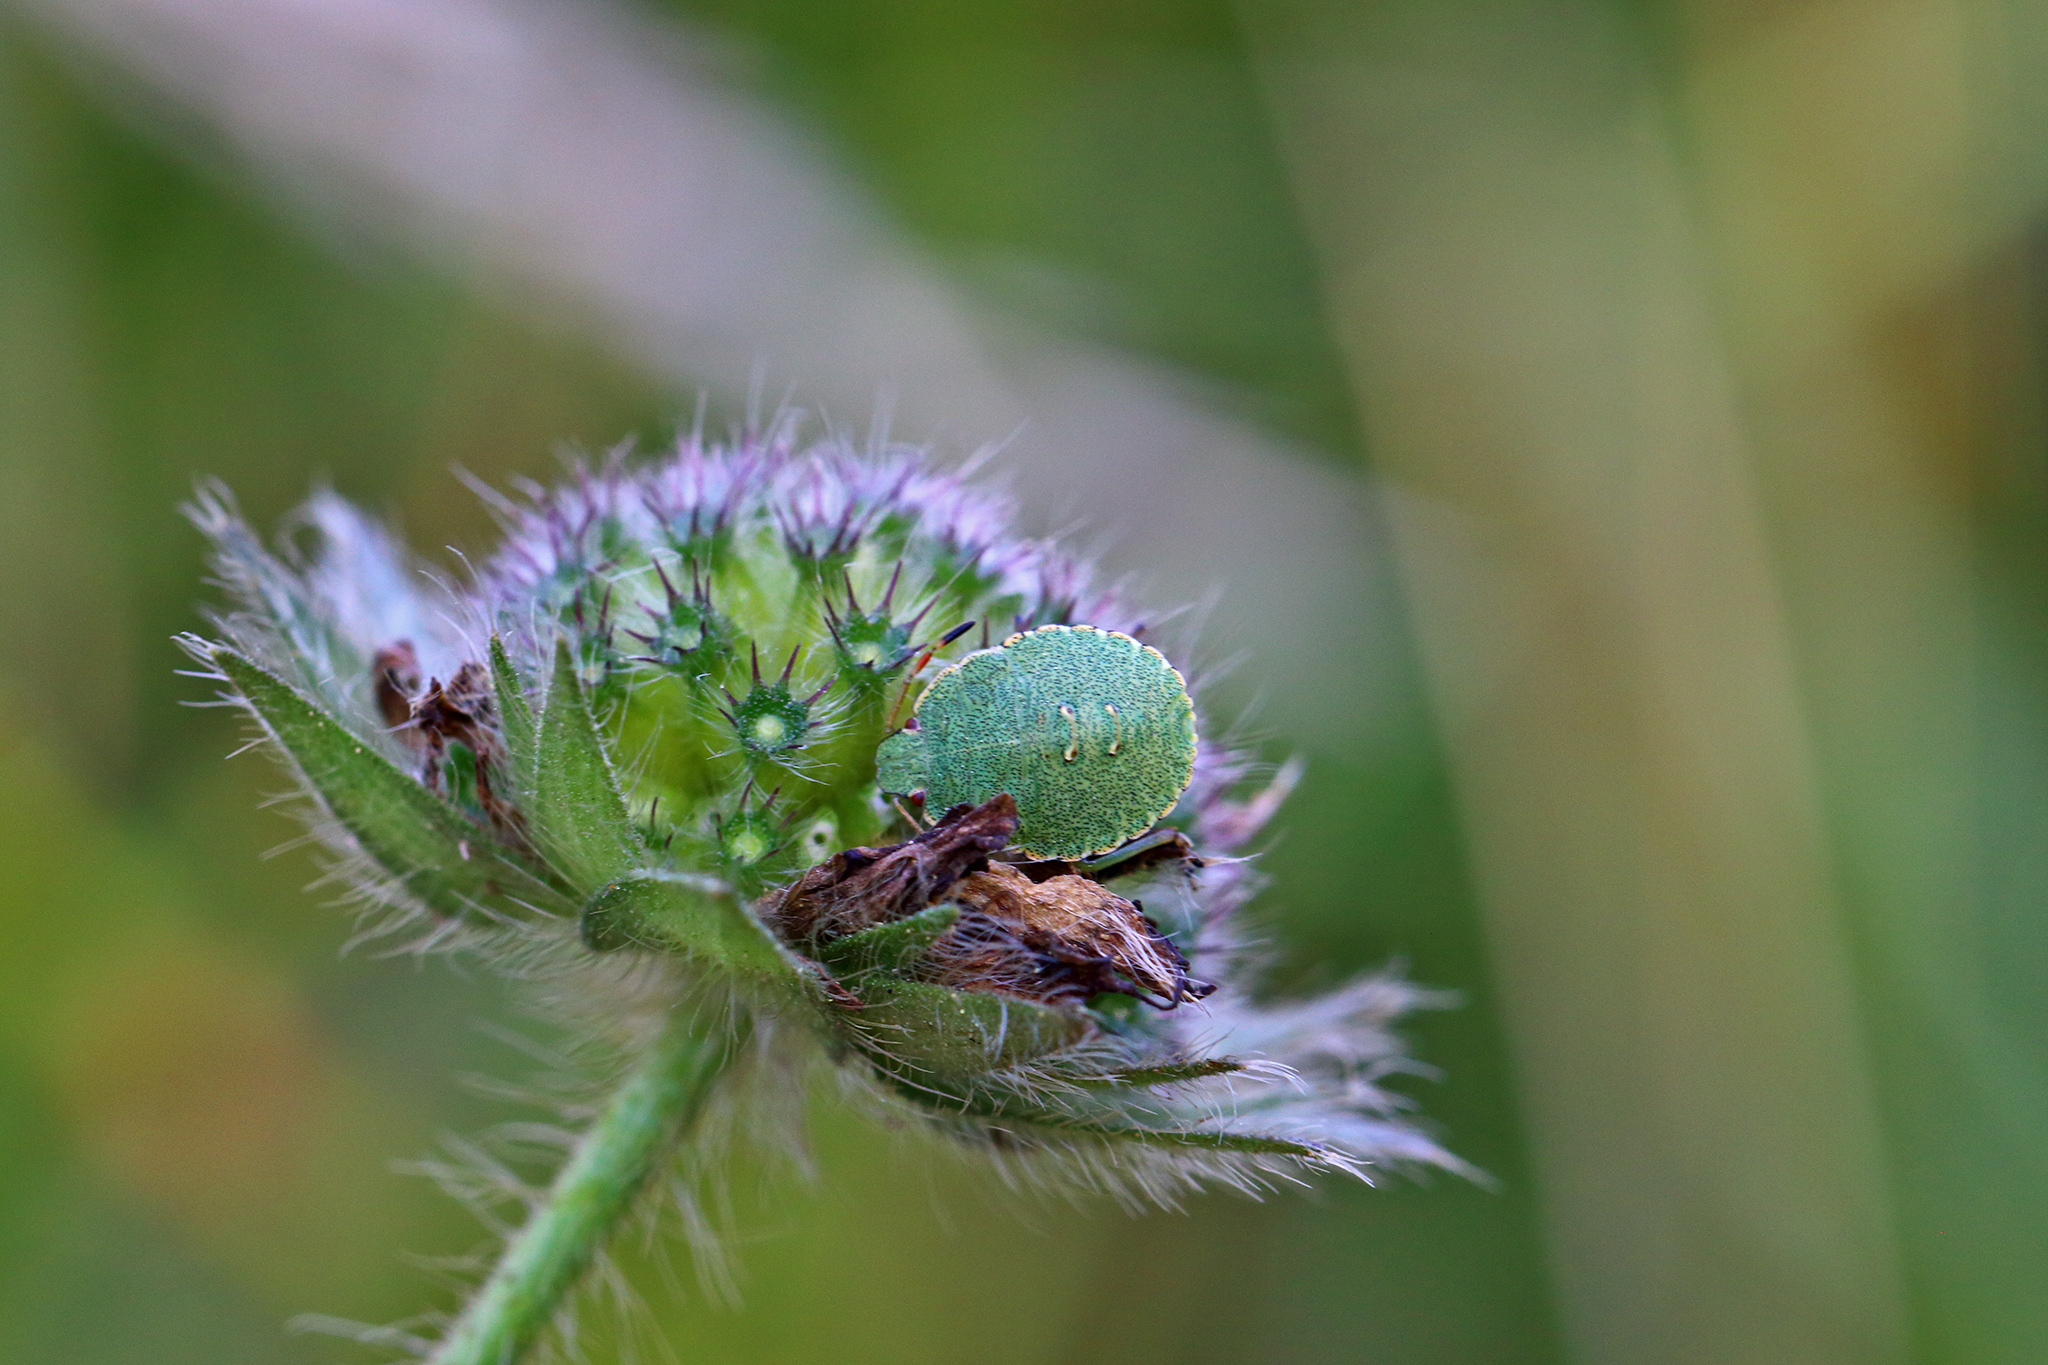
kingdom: Animalia
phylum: Arthropoda
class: Insecta
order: Hemiptera
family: Pentatomidae
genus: Palomena
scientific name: Palomena prasina
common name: Green shieldbug
